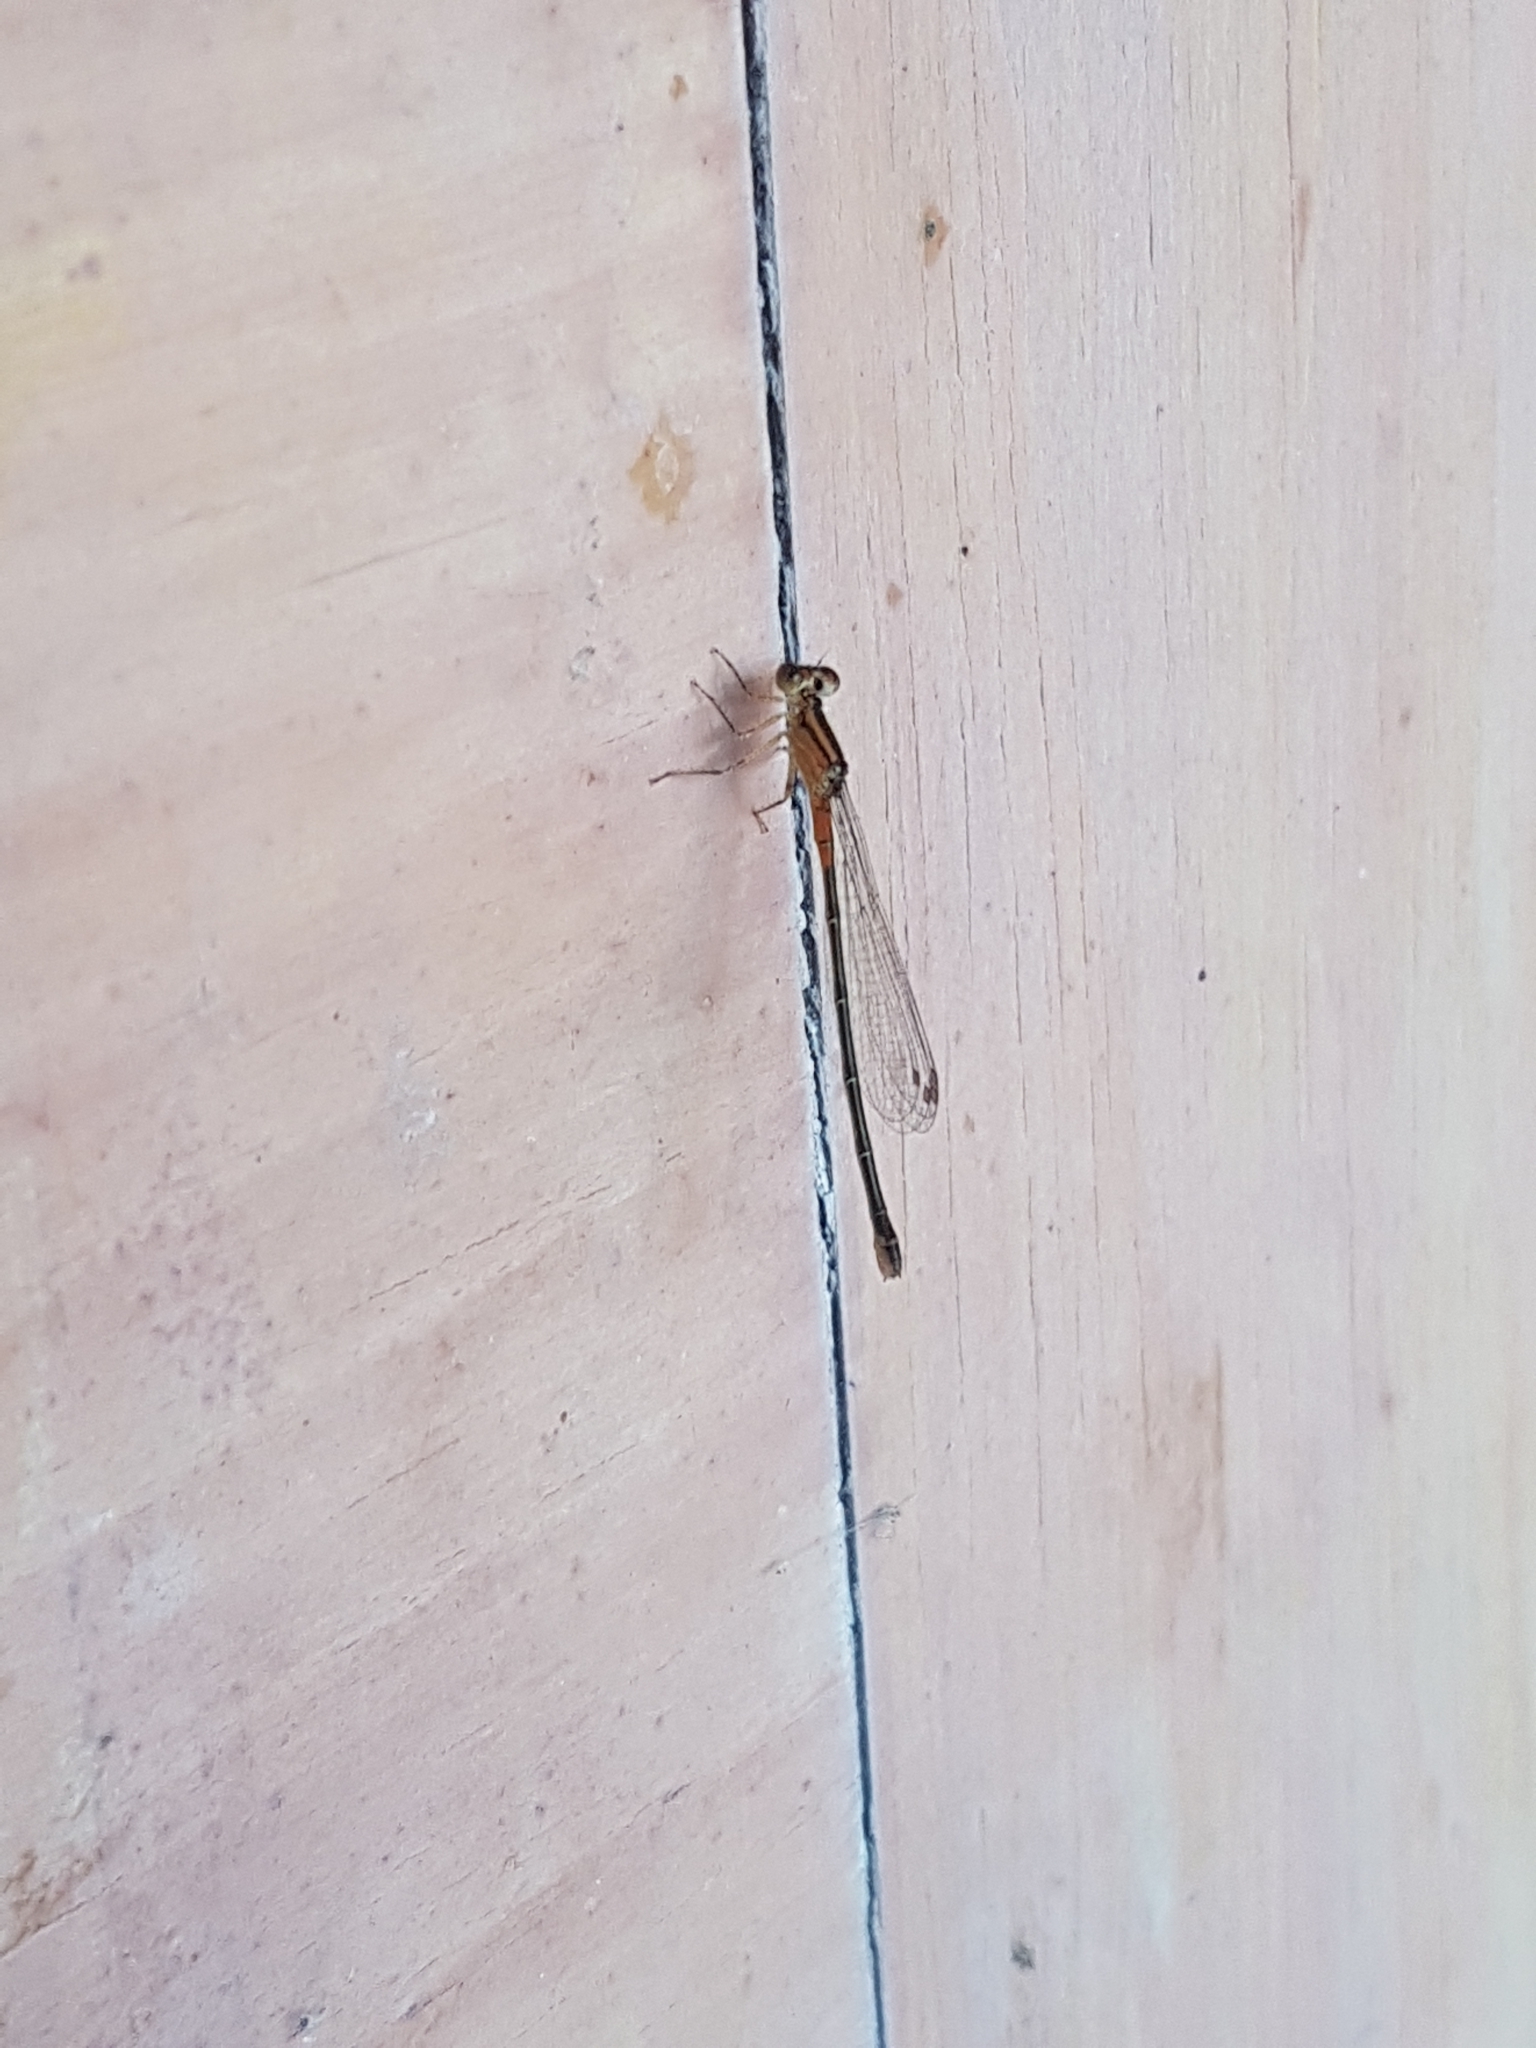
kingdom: Animalia
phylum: Arthropoda
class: Insecta
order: Odonata
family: Coenagrionidae
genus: Ischnura
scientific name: Ischnura verticalis
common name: Eastern forktail
